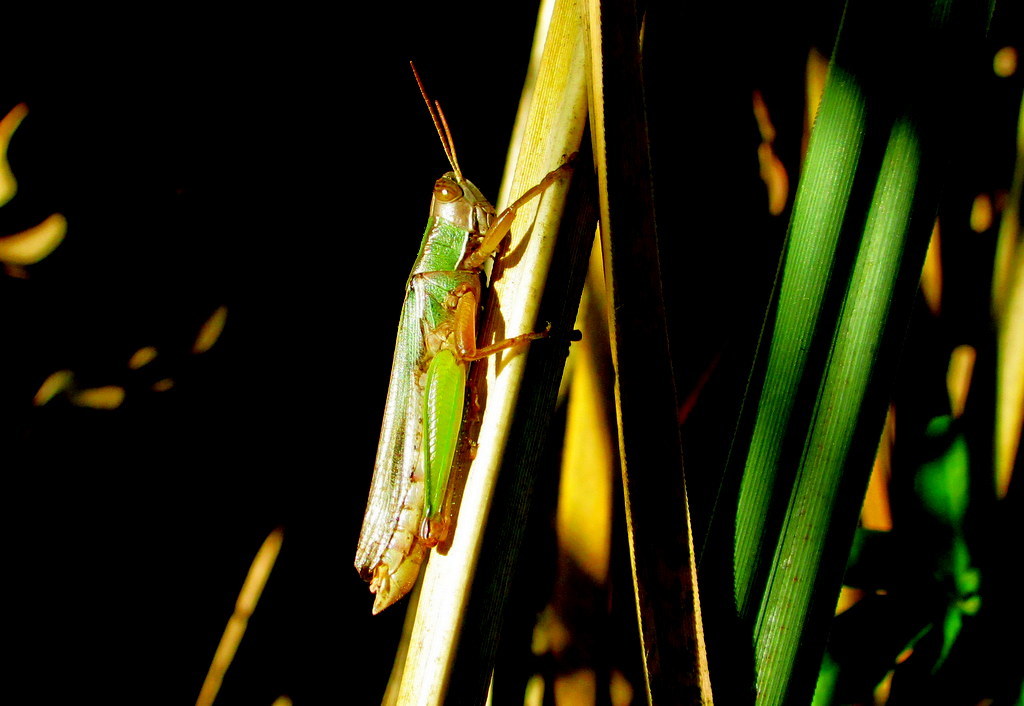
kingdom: Animalia
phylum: Arthropoda
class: Insecta
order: Orthoptera
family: Acrididae
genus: Aleuas
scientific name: Aleuas lineatus
